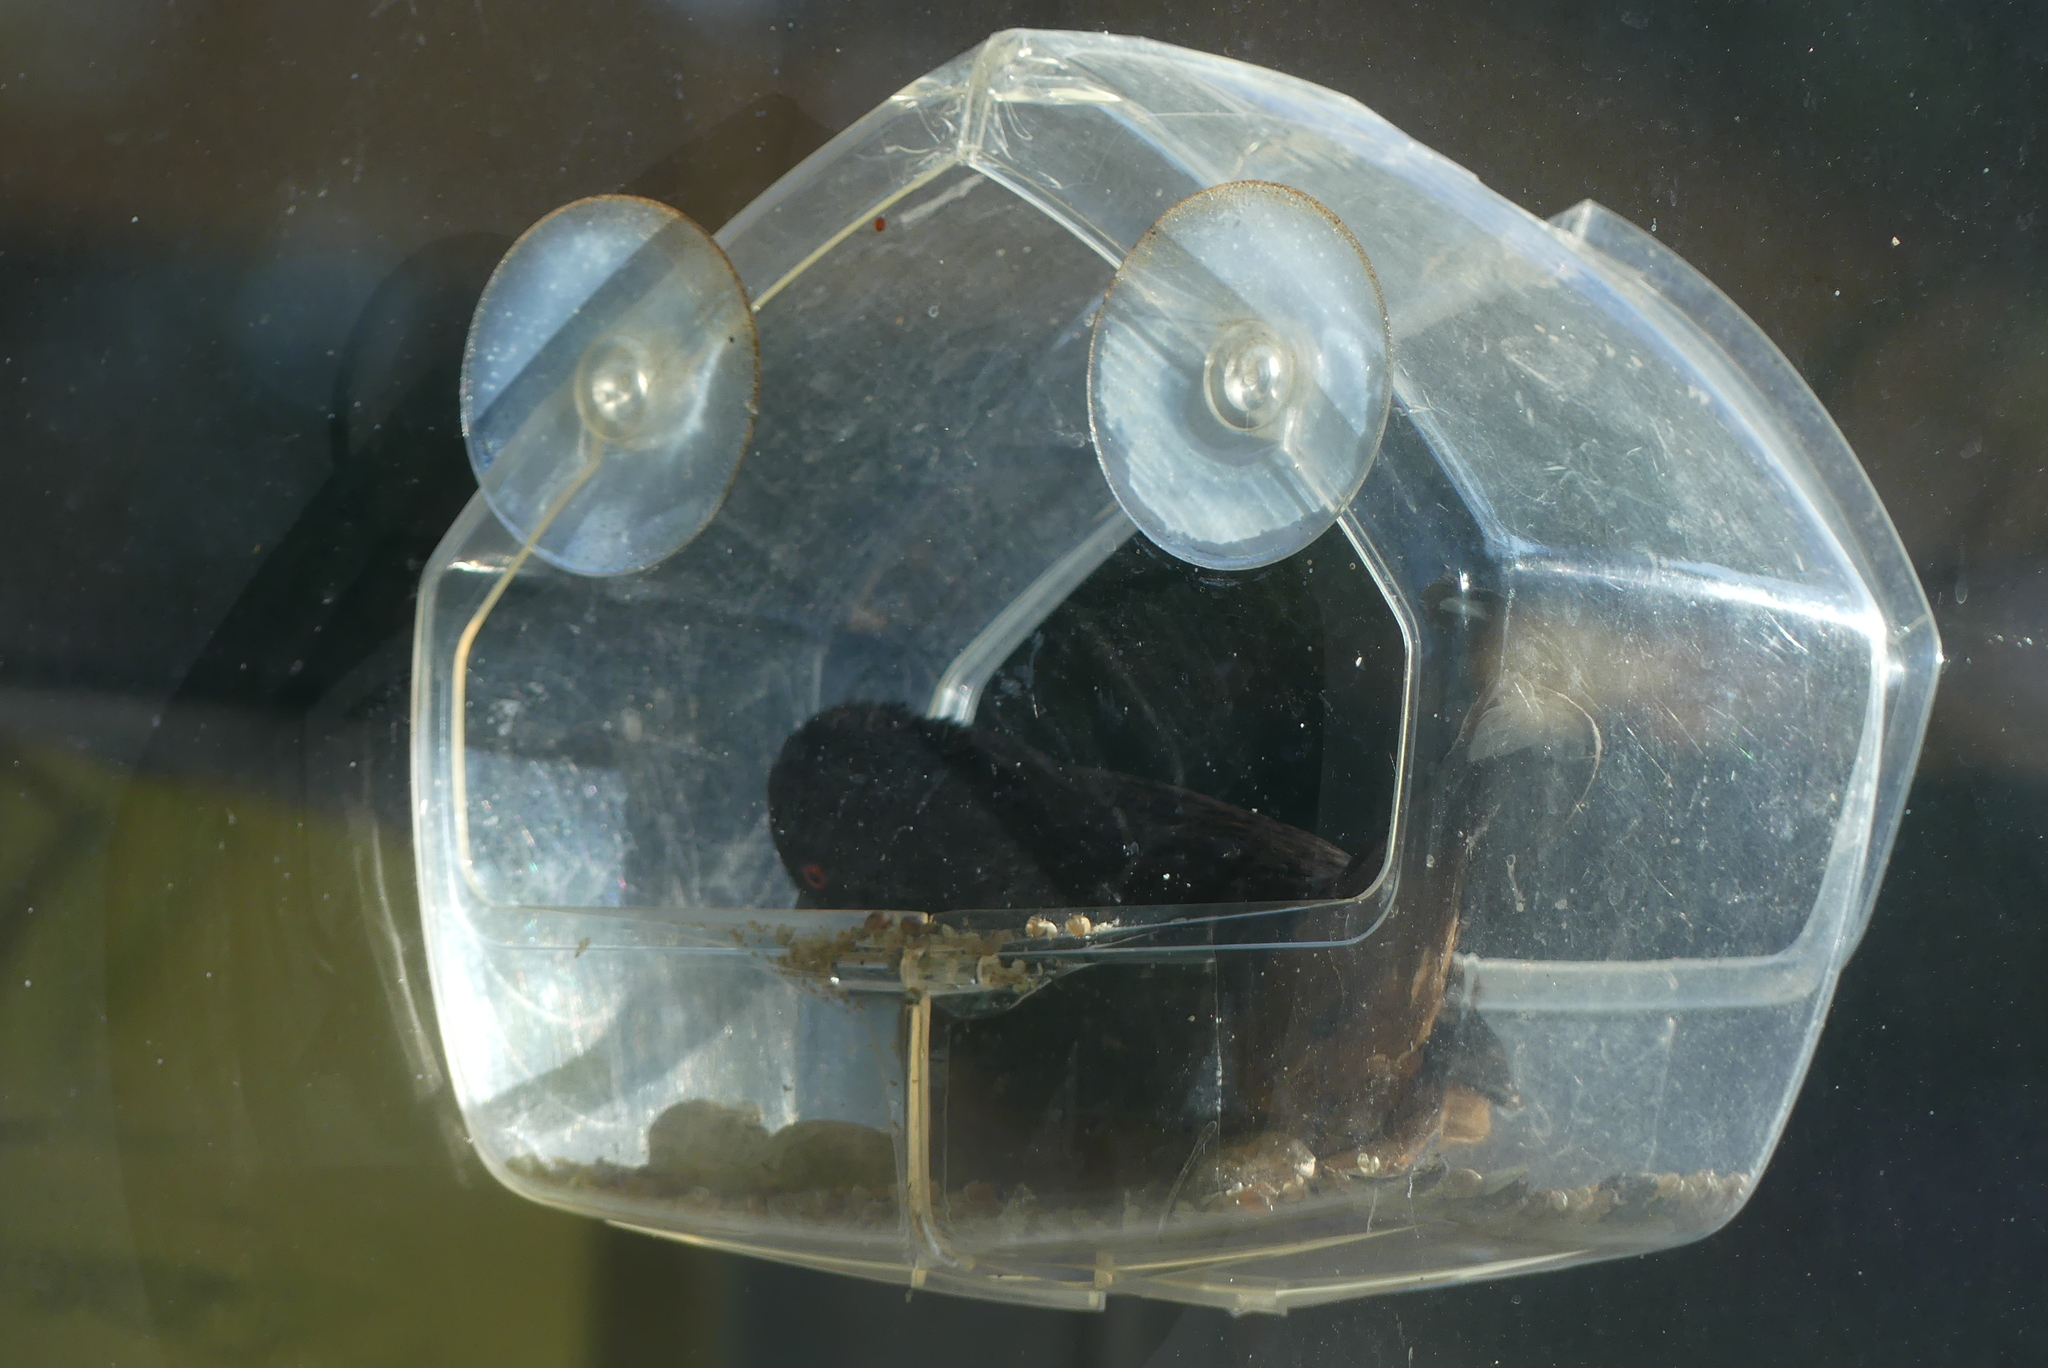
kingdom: Animalia
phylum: Chordata
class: Aves
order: Passeriformes
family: Passerellidae
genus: Pipilo
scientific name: Pipilo maculatus
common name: Spotted towhee
